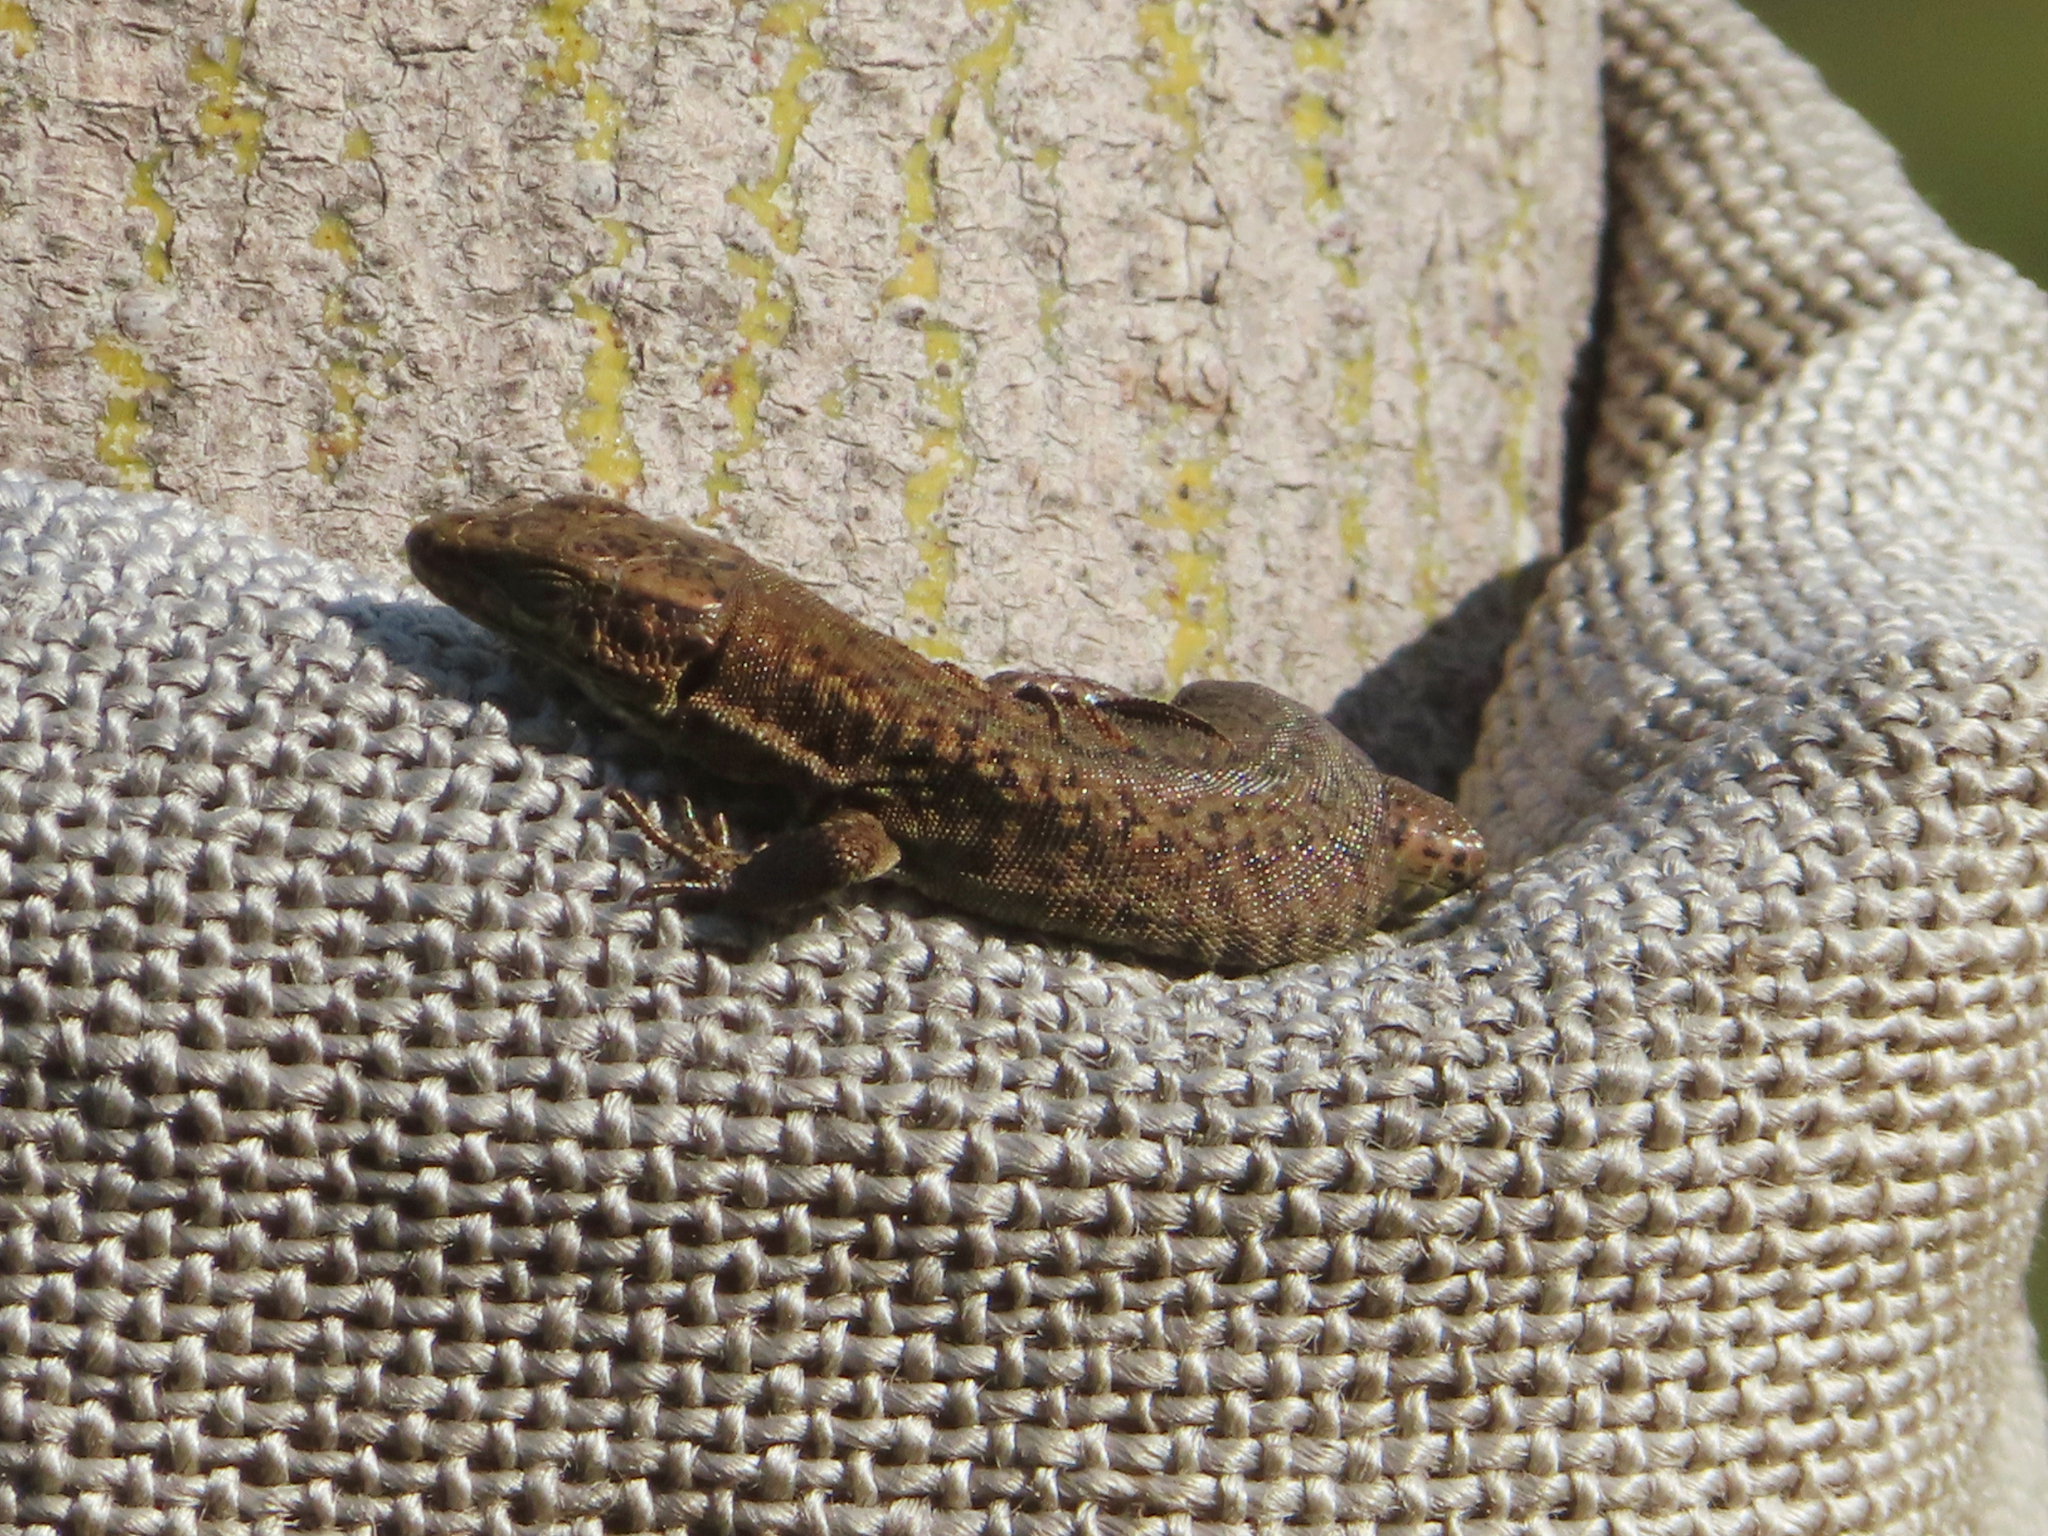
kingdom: Animalia
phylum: Chordata
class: Squamata
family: Lacertidae
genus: Podarcis
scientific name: Podarcis muralis
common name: Common wall lizard
